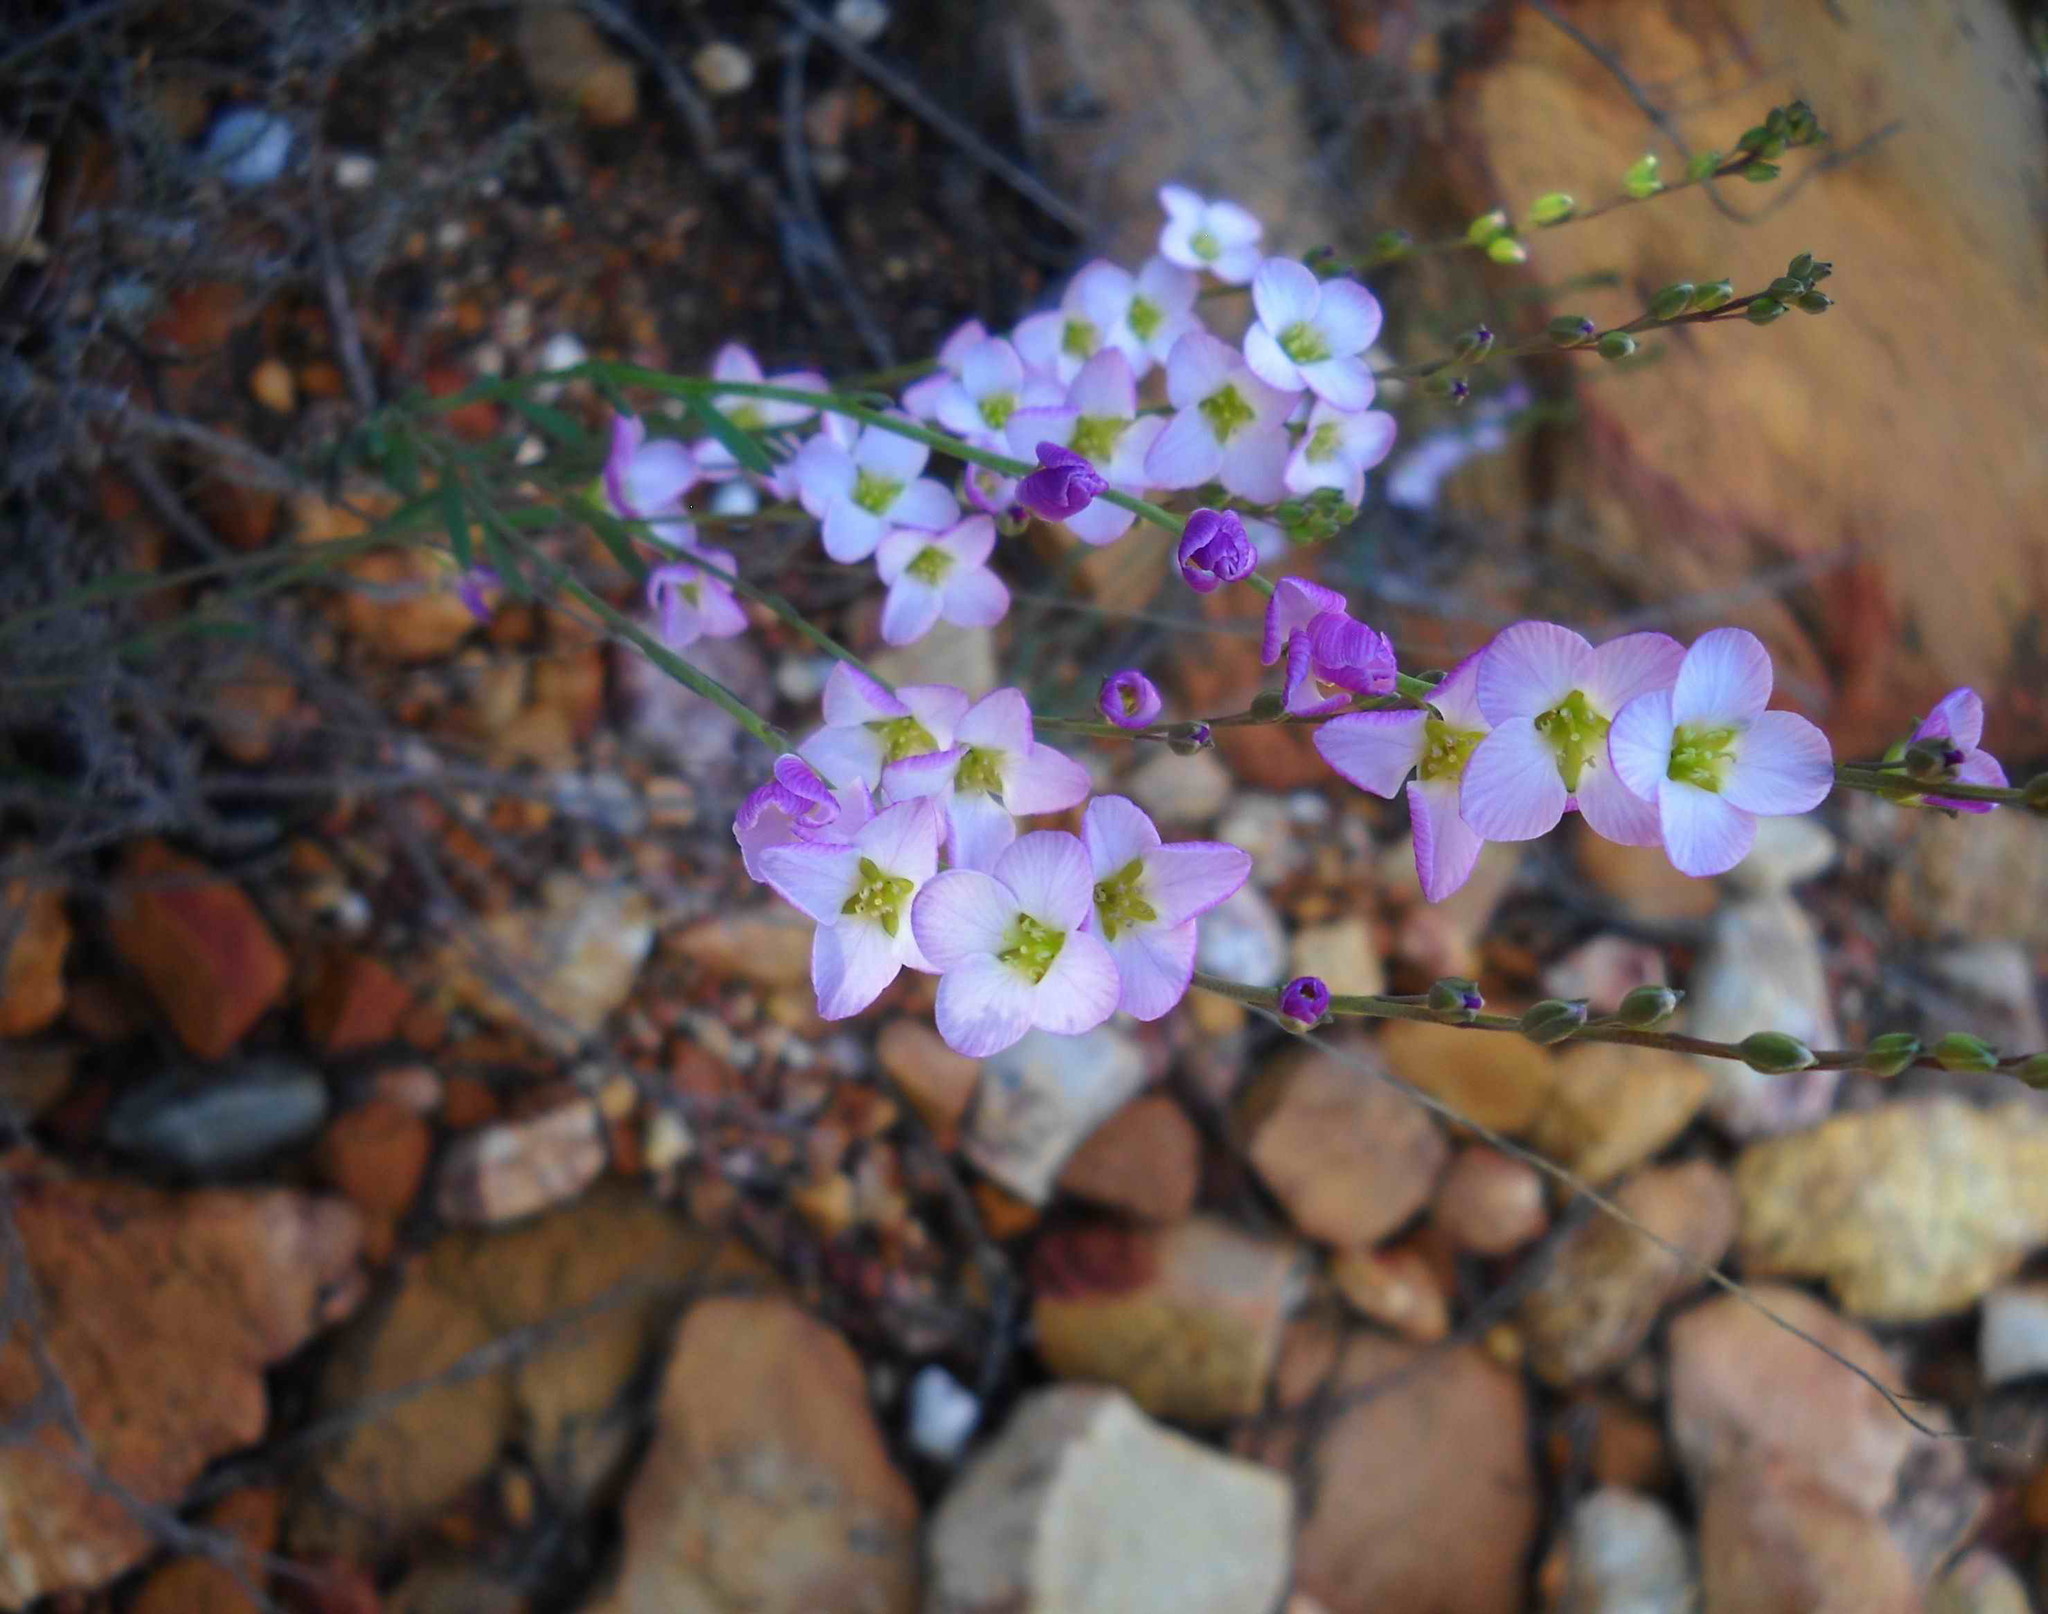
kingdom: Plantae
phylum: Tracheophyta
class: Magnoliopsida
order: Brassicales
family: Brassicaceae
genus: Heliophila
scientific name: Heliophila glauca
